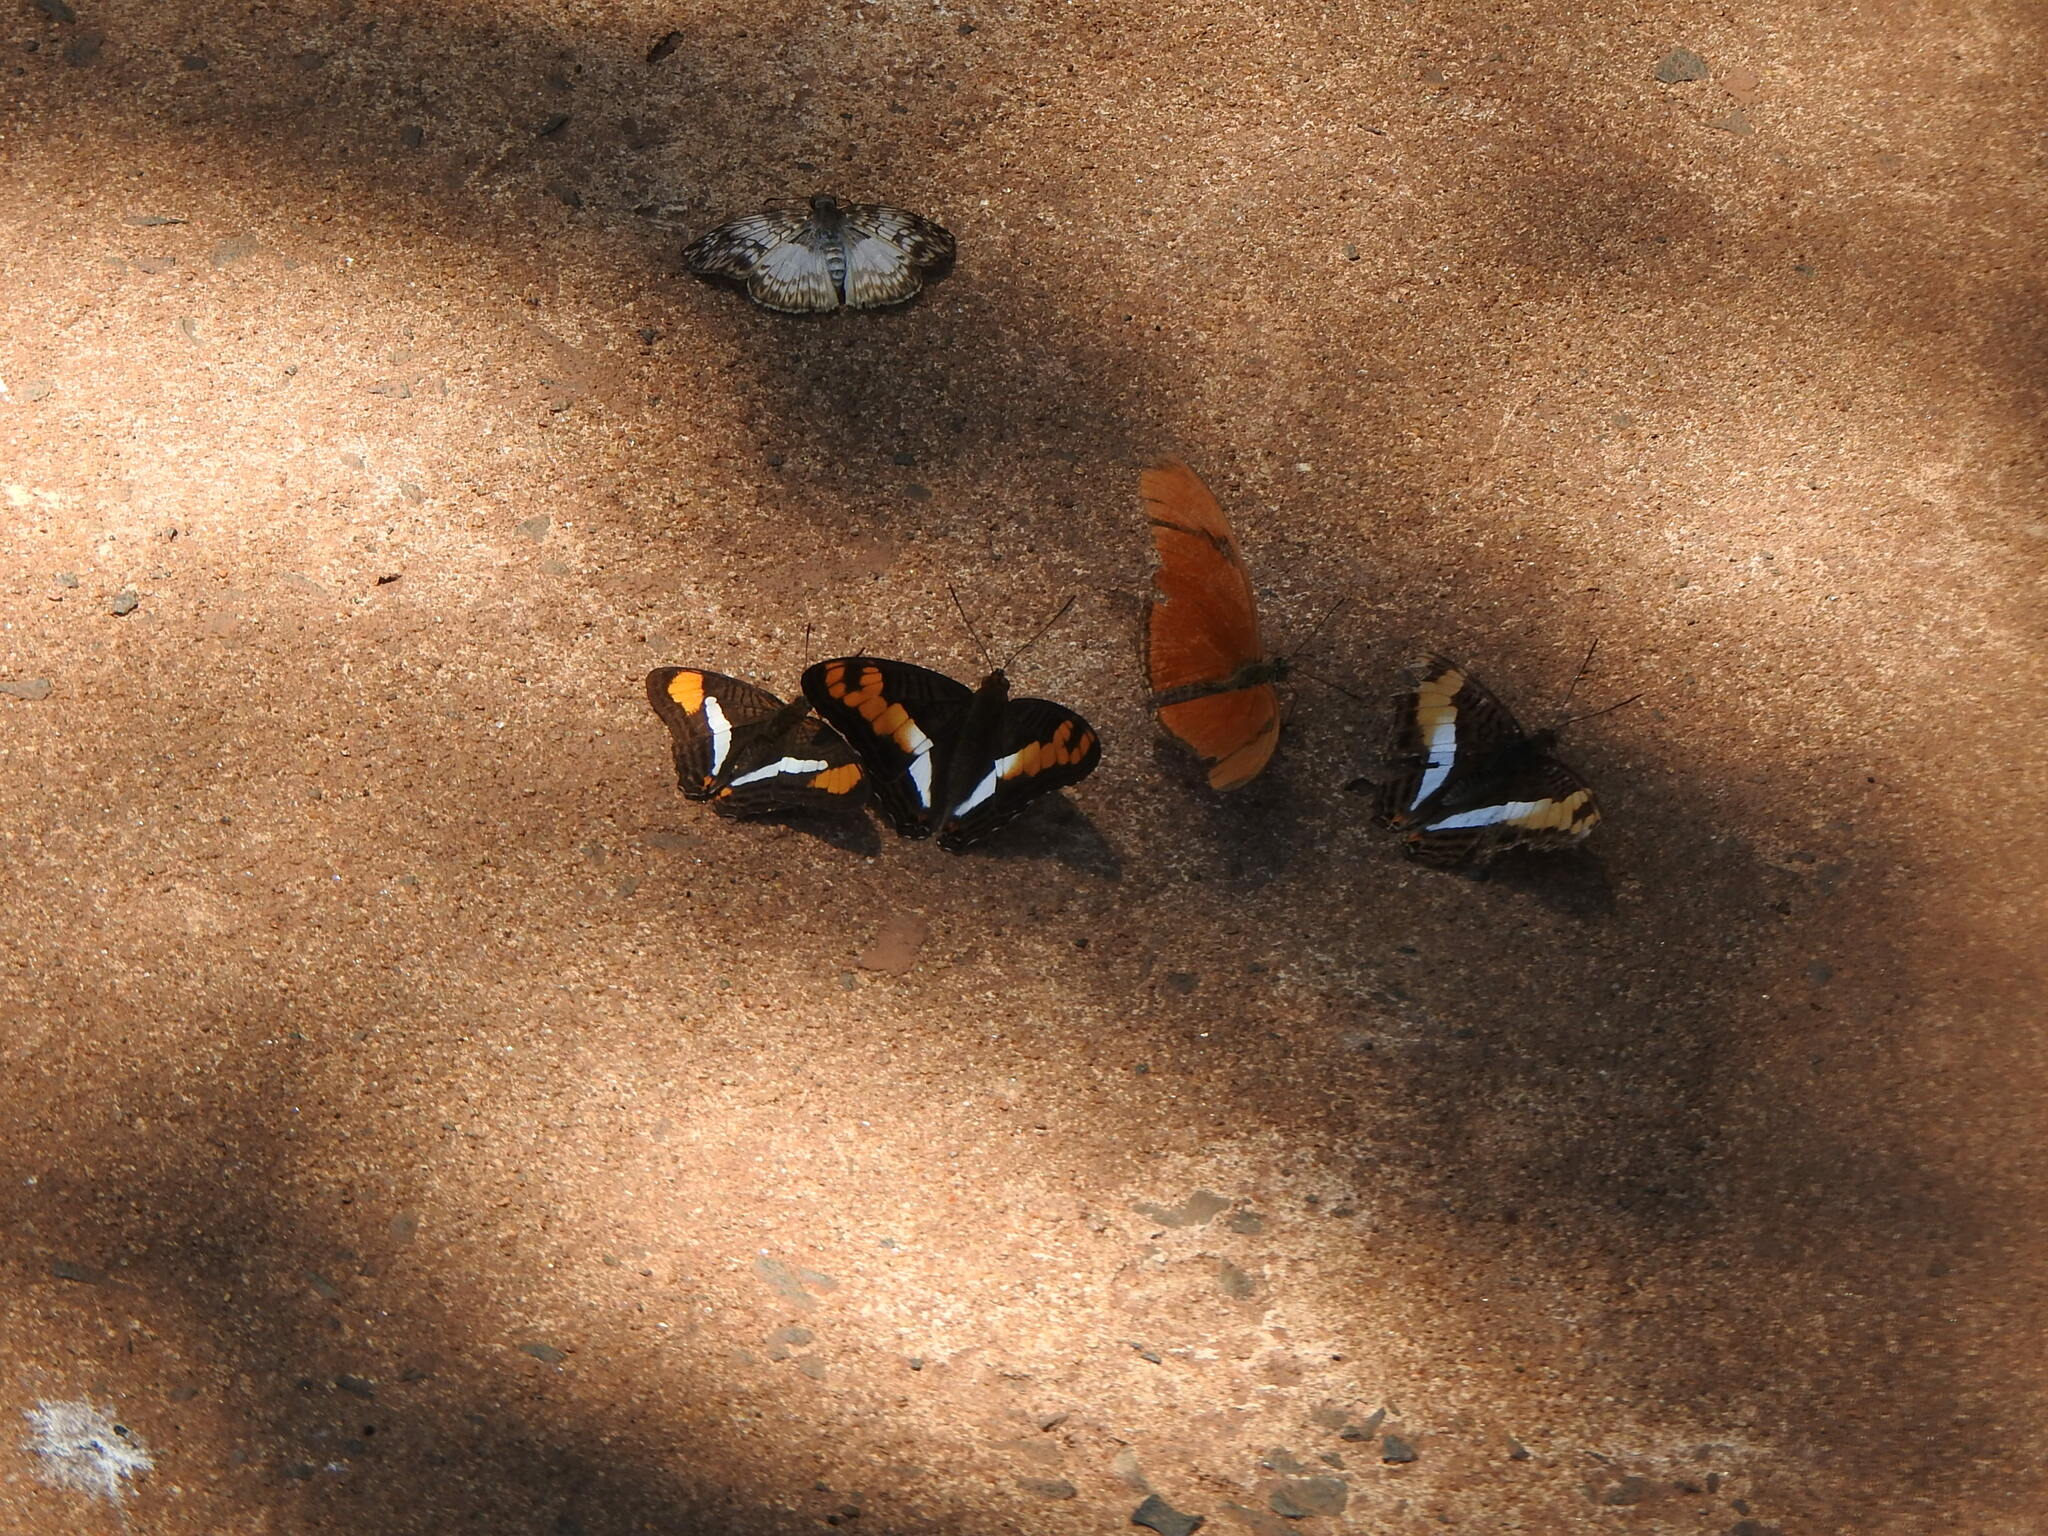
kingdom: Animalia
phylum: Arthropoda
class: Insecta
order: Lepidoptera
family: Nymphalidae
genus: Dryas
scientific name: Dryas iulia
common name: Flambeau
